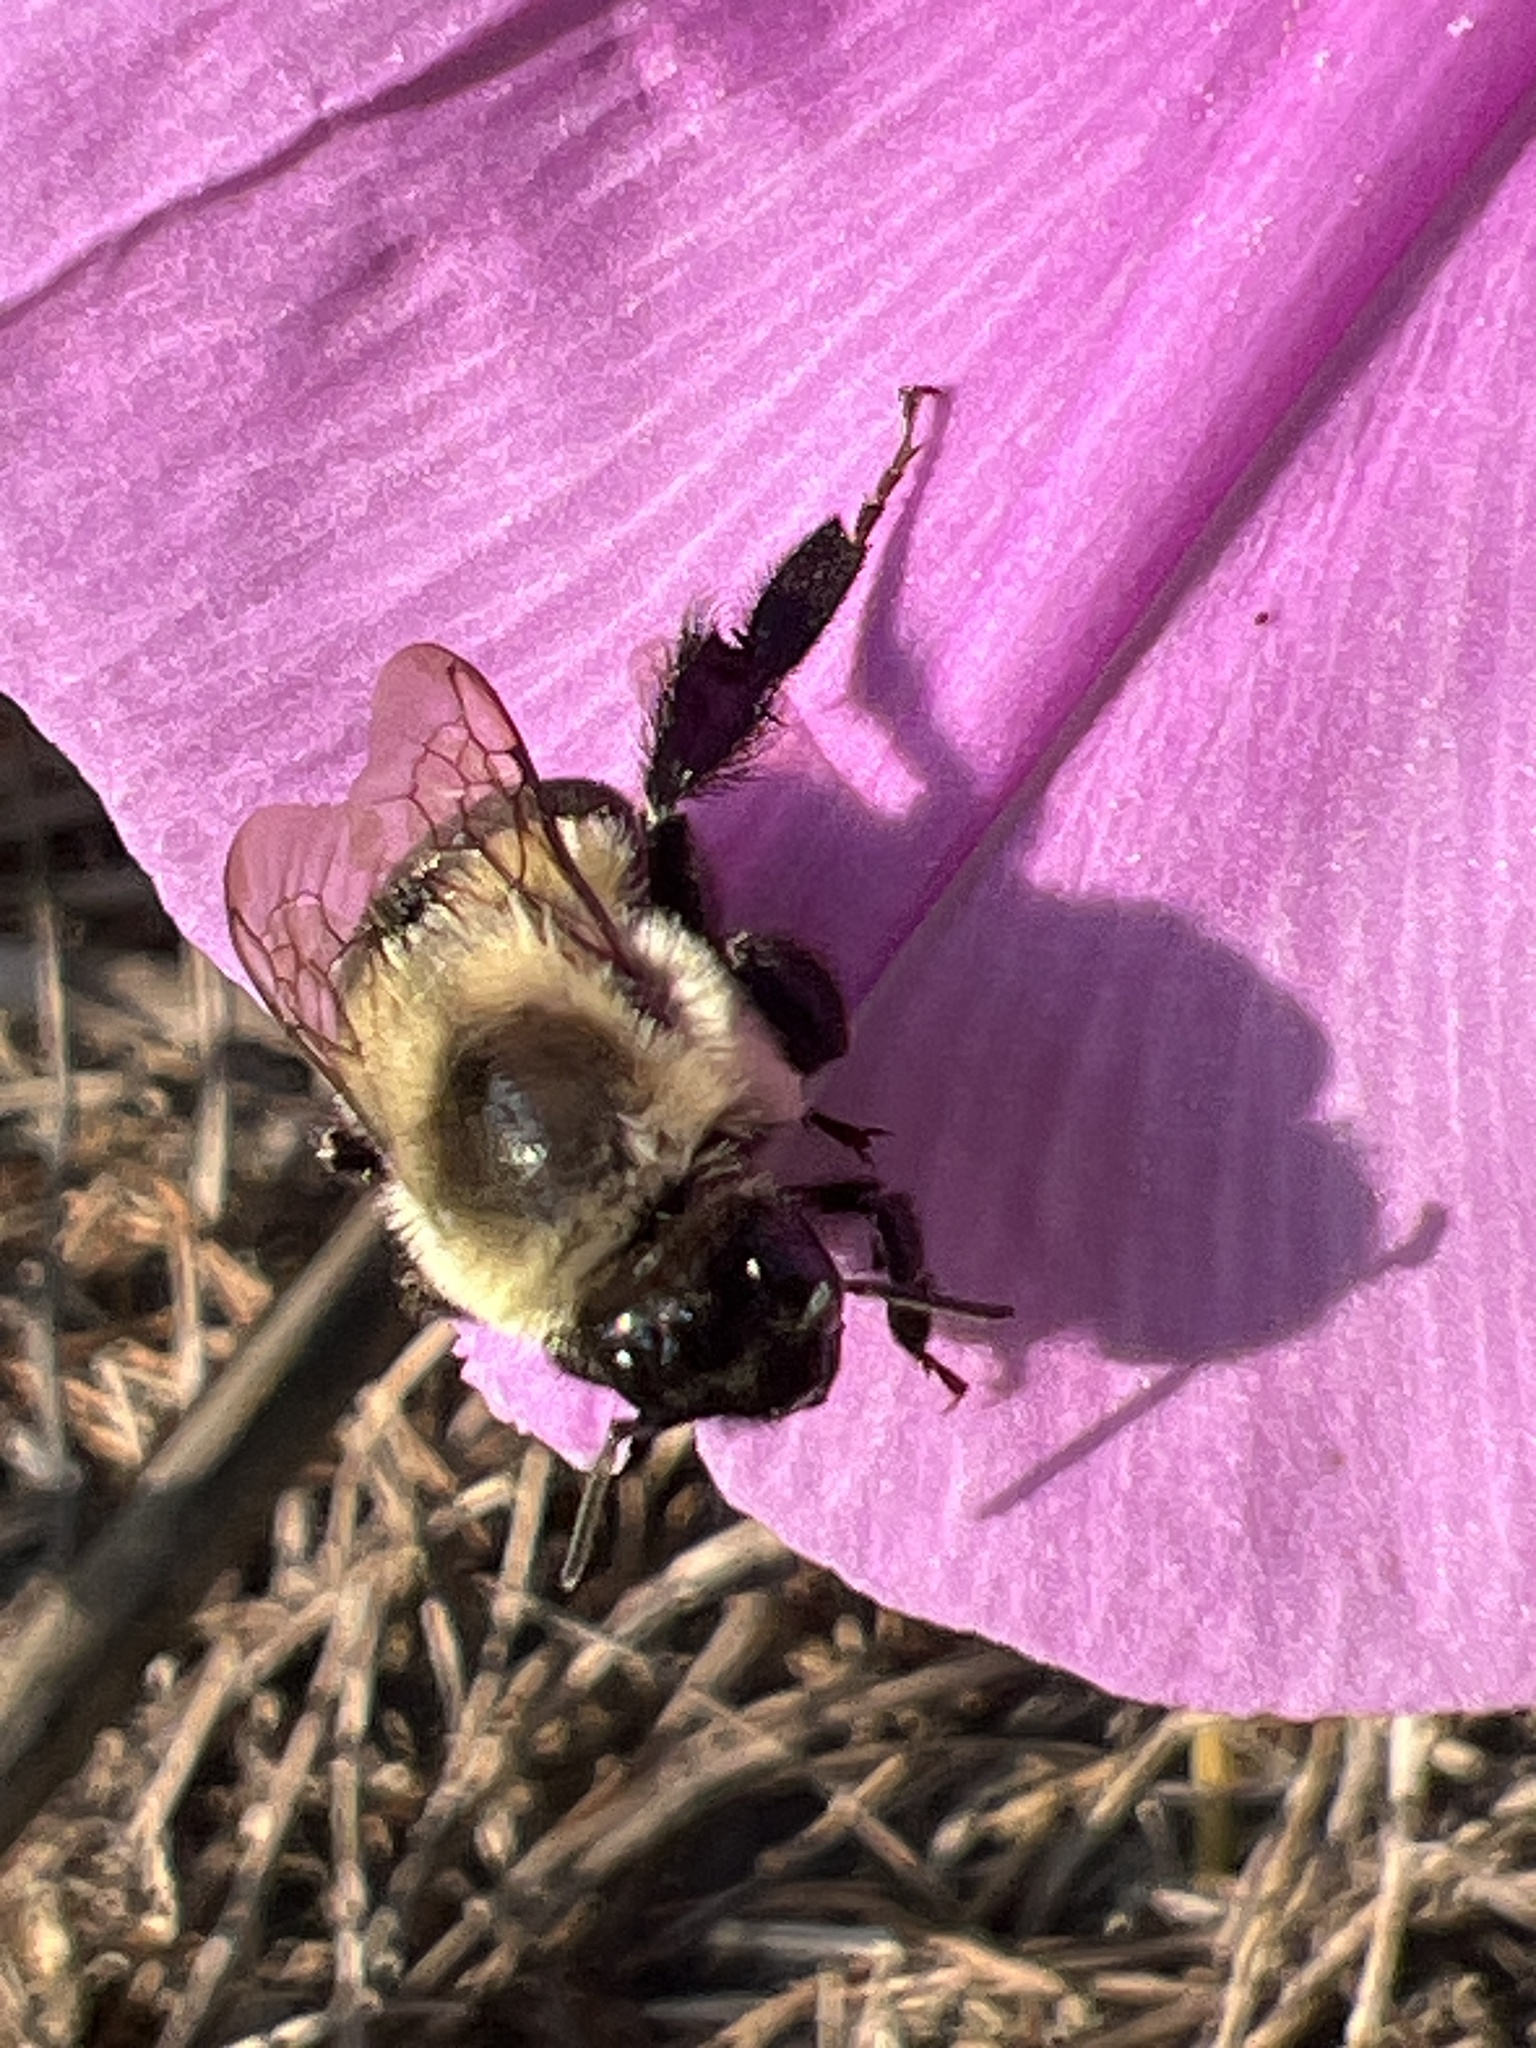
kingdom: Animalia
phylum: Arthropoda
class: Insecta
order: Hymenoptera
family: Apidae
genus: Bombus
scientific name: Bombus impatiens
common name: Common eastern bumble bee
